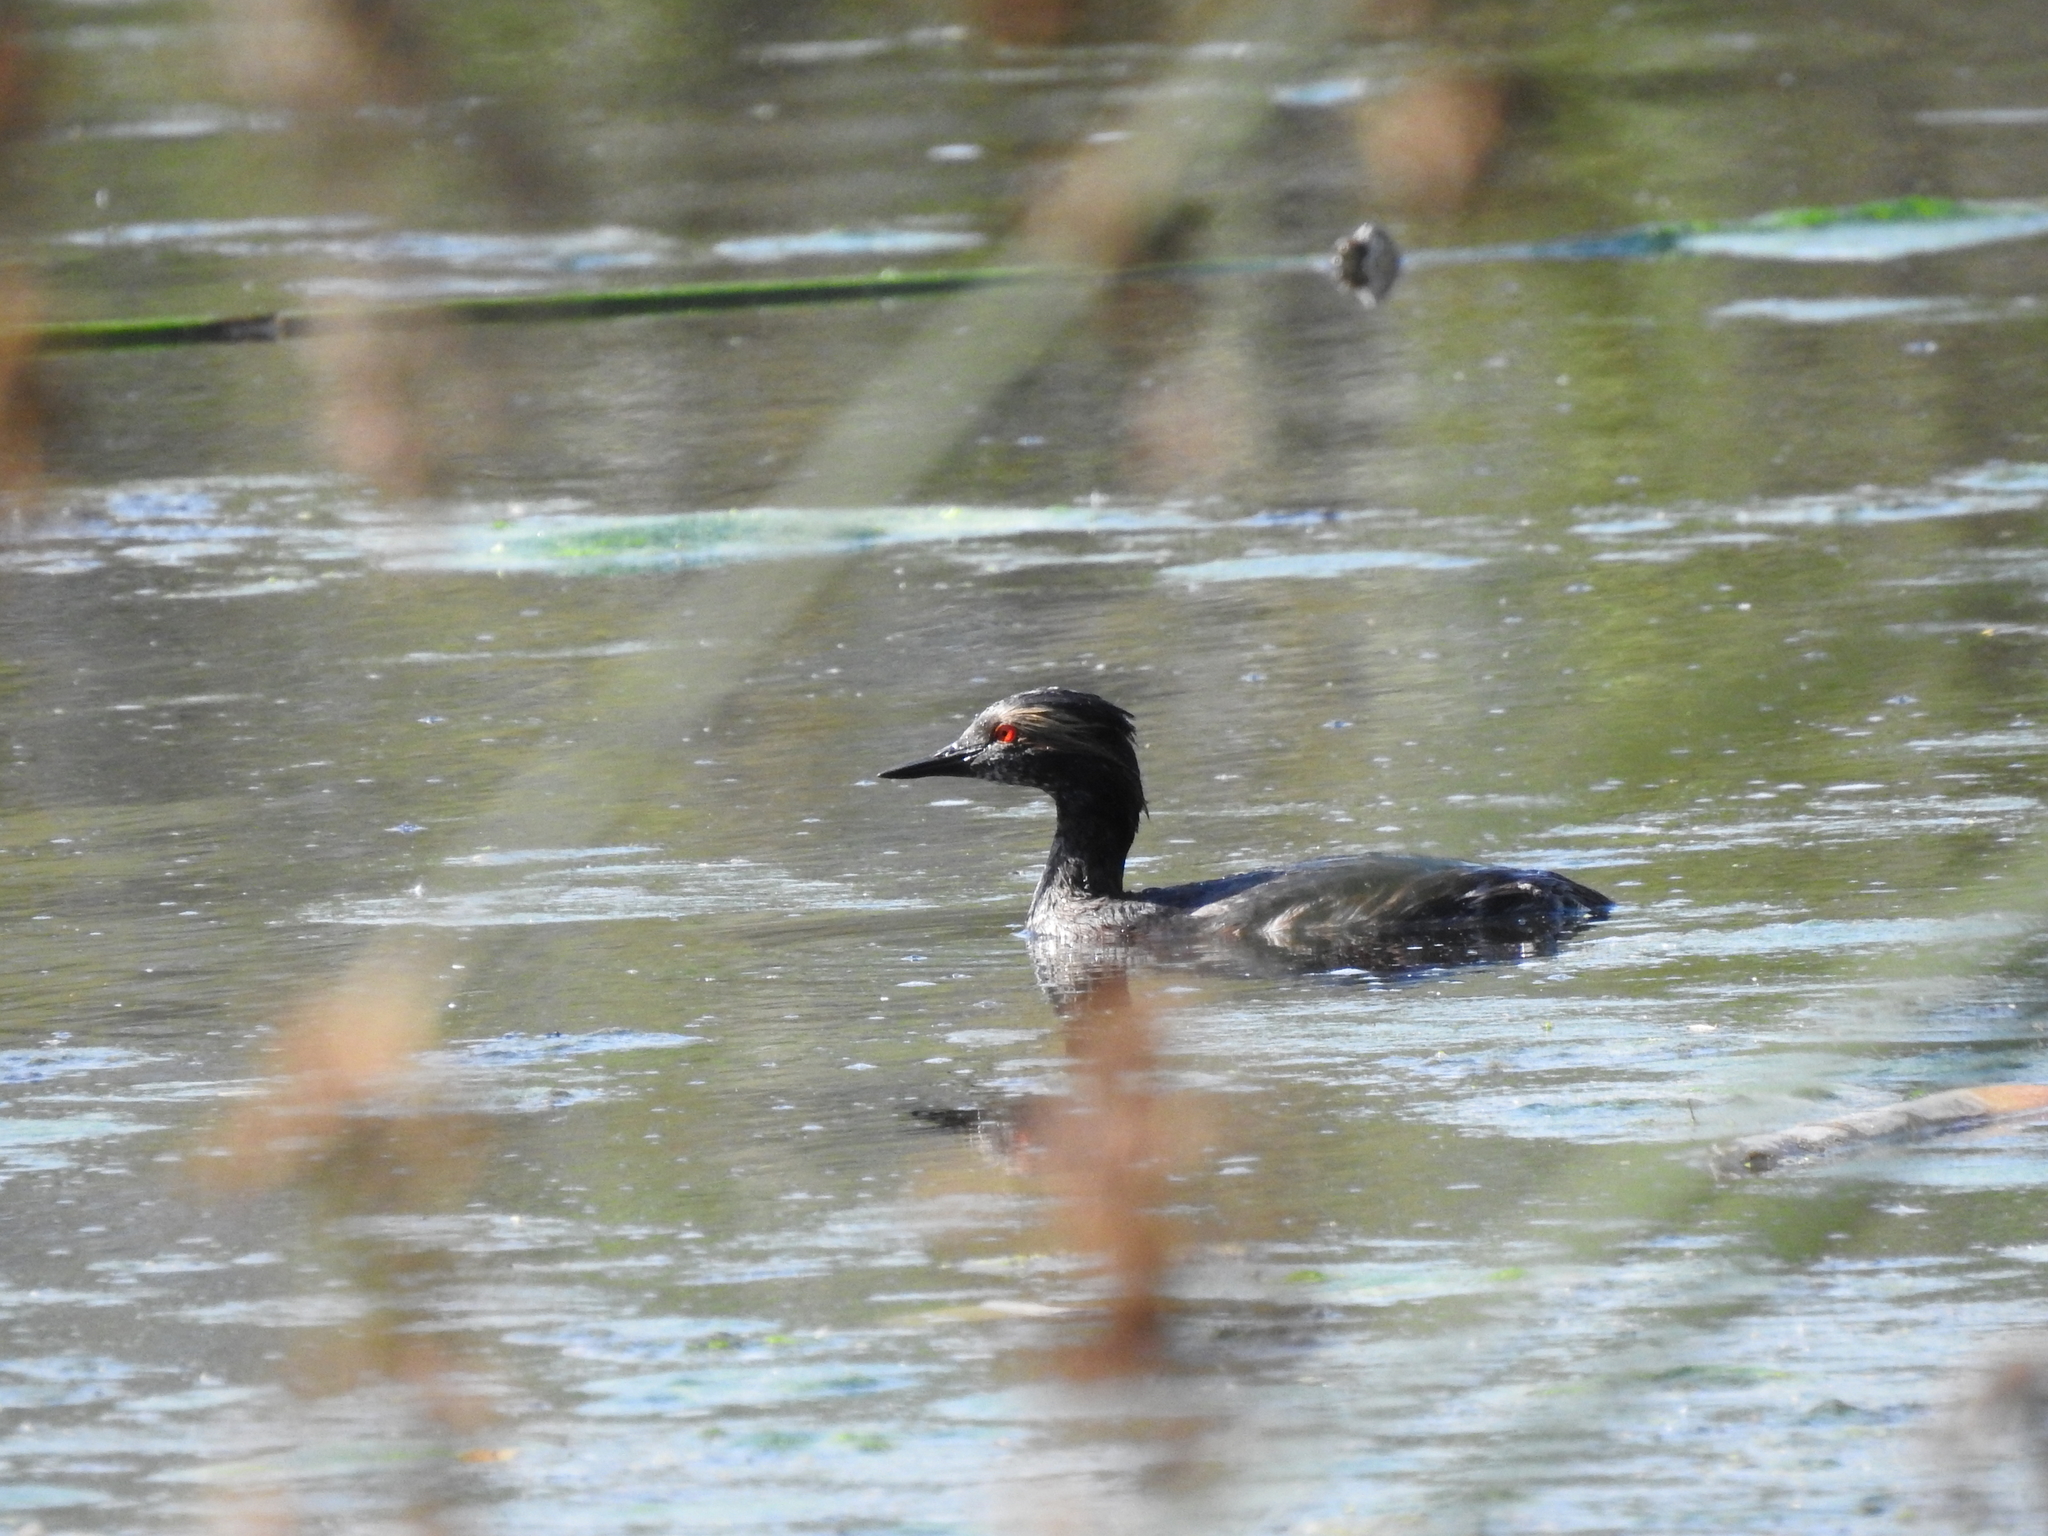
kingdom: Animalia
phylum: Chordata
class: Aves
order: Podicipediformes
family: Podicipedidae
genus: Podiceps
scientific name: Podiceps nigricollis
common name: Black-necked grebe
